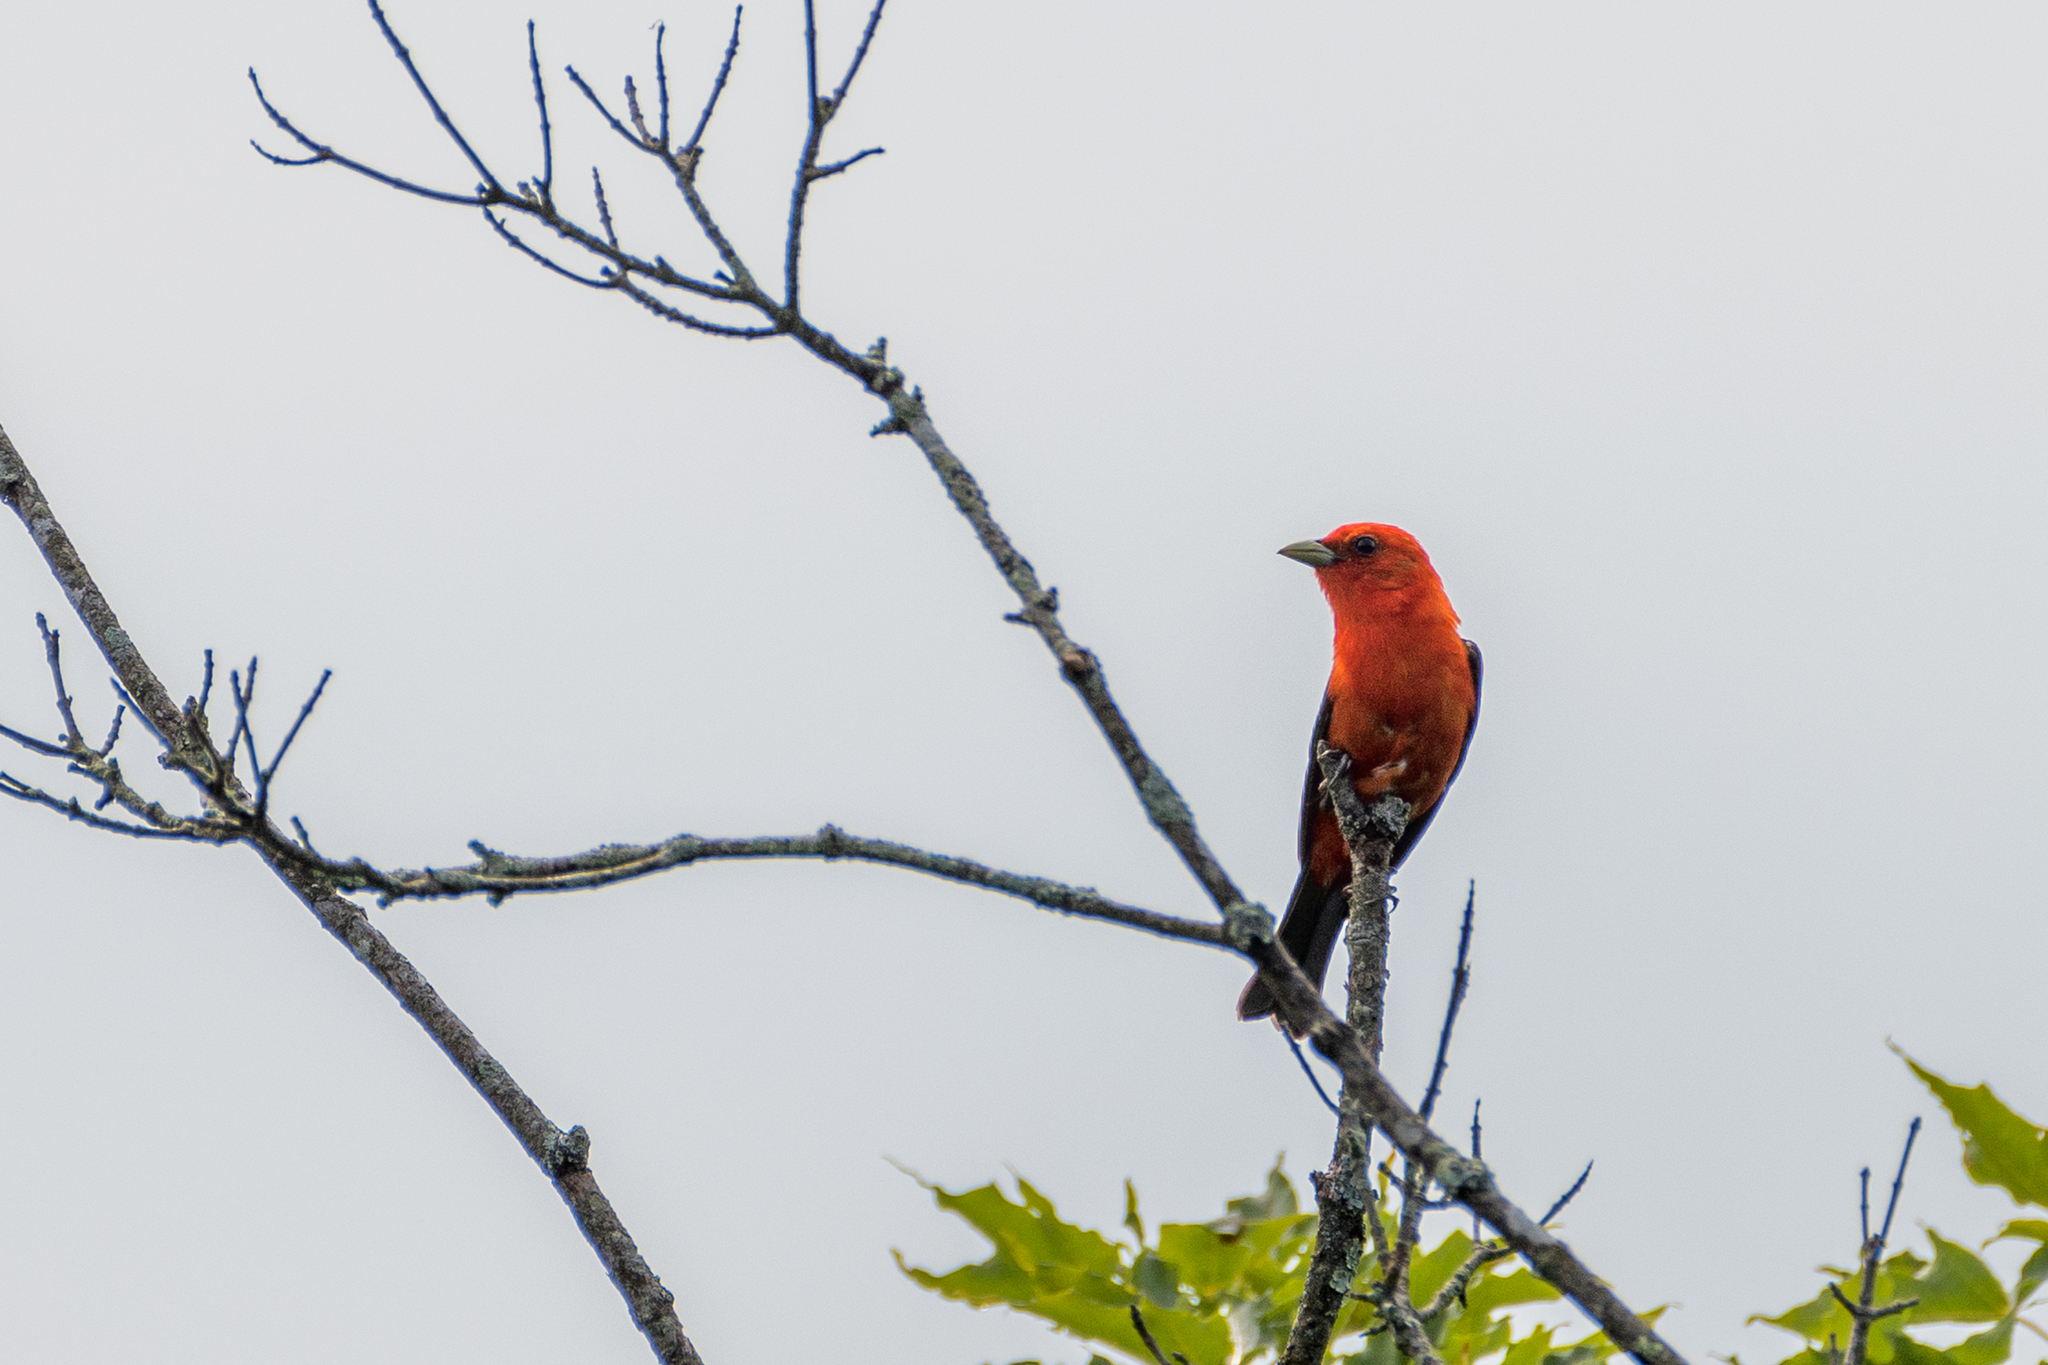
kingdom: Animalia
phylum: Chordata
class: Aves
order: Passeriformes
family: Cardinalidae
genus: Piranga
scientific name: Piranga olivacea
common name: Scarlet tanager
